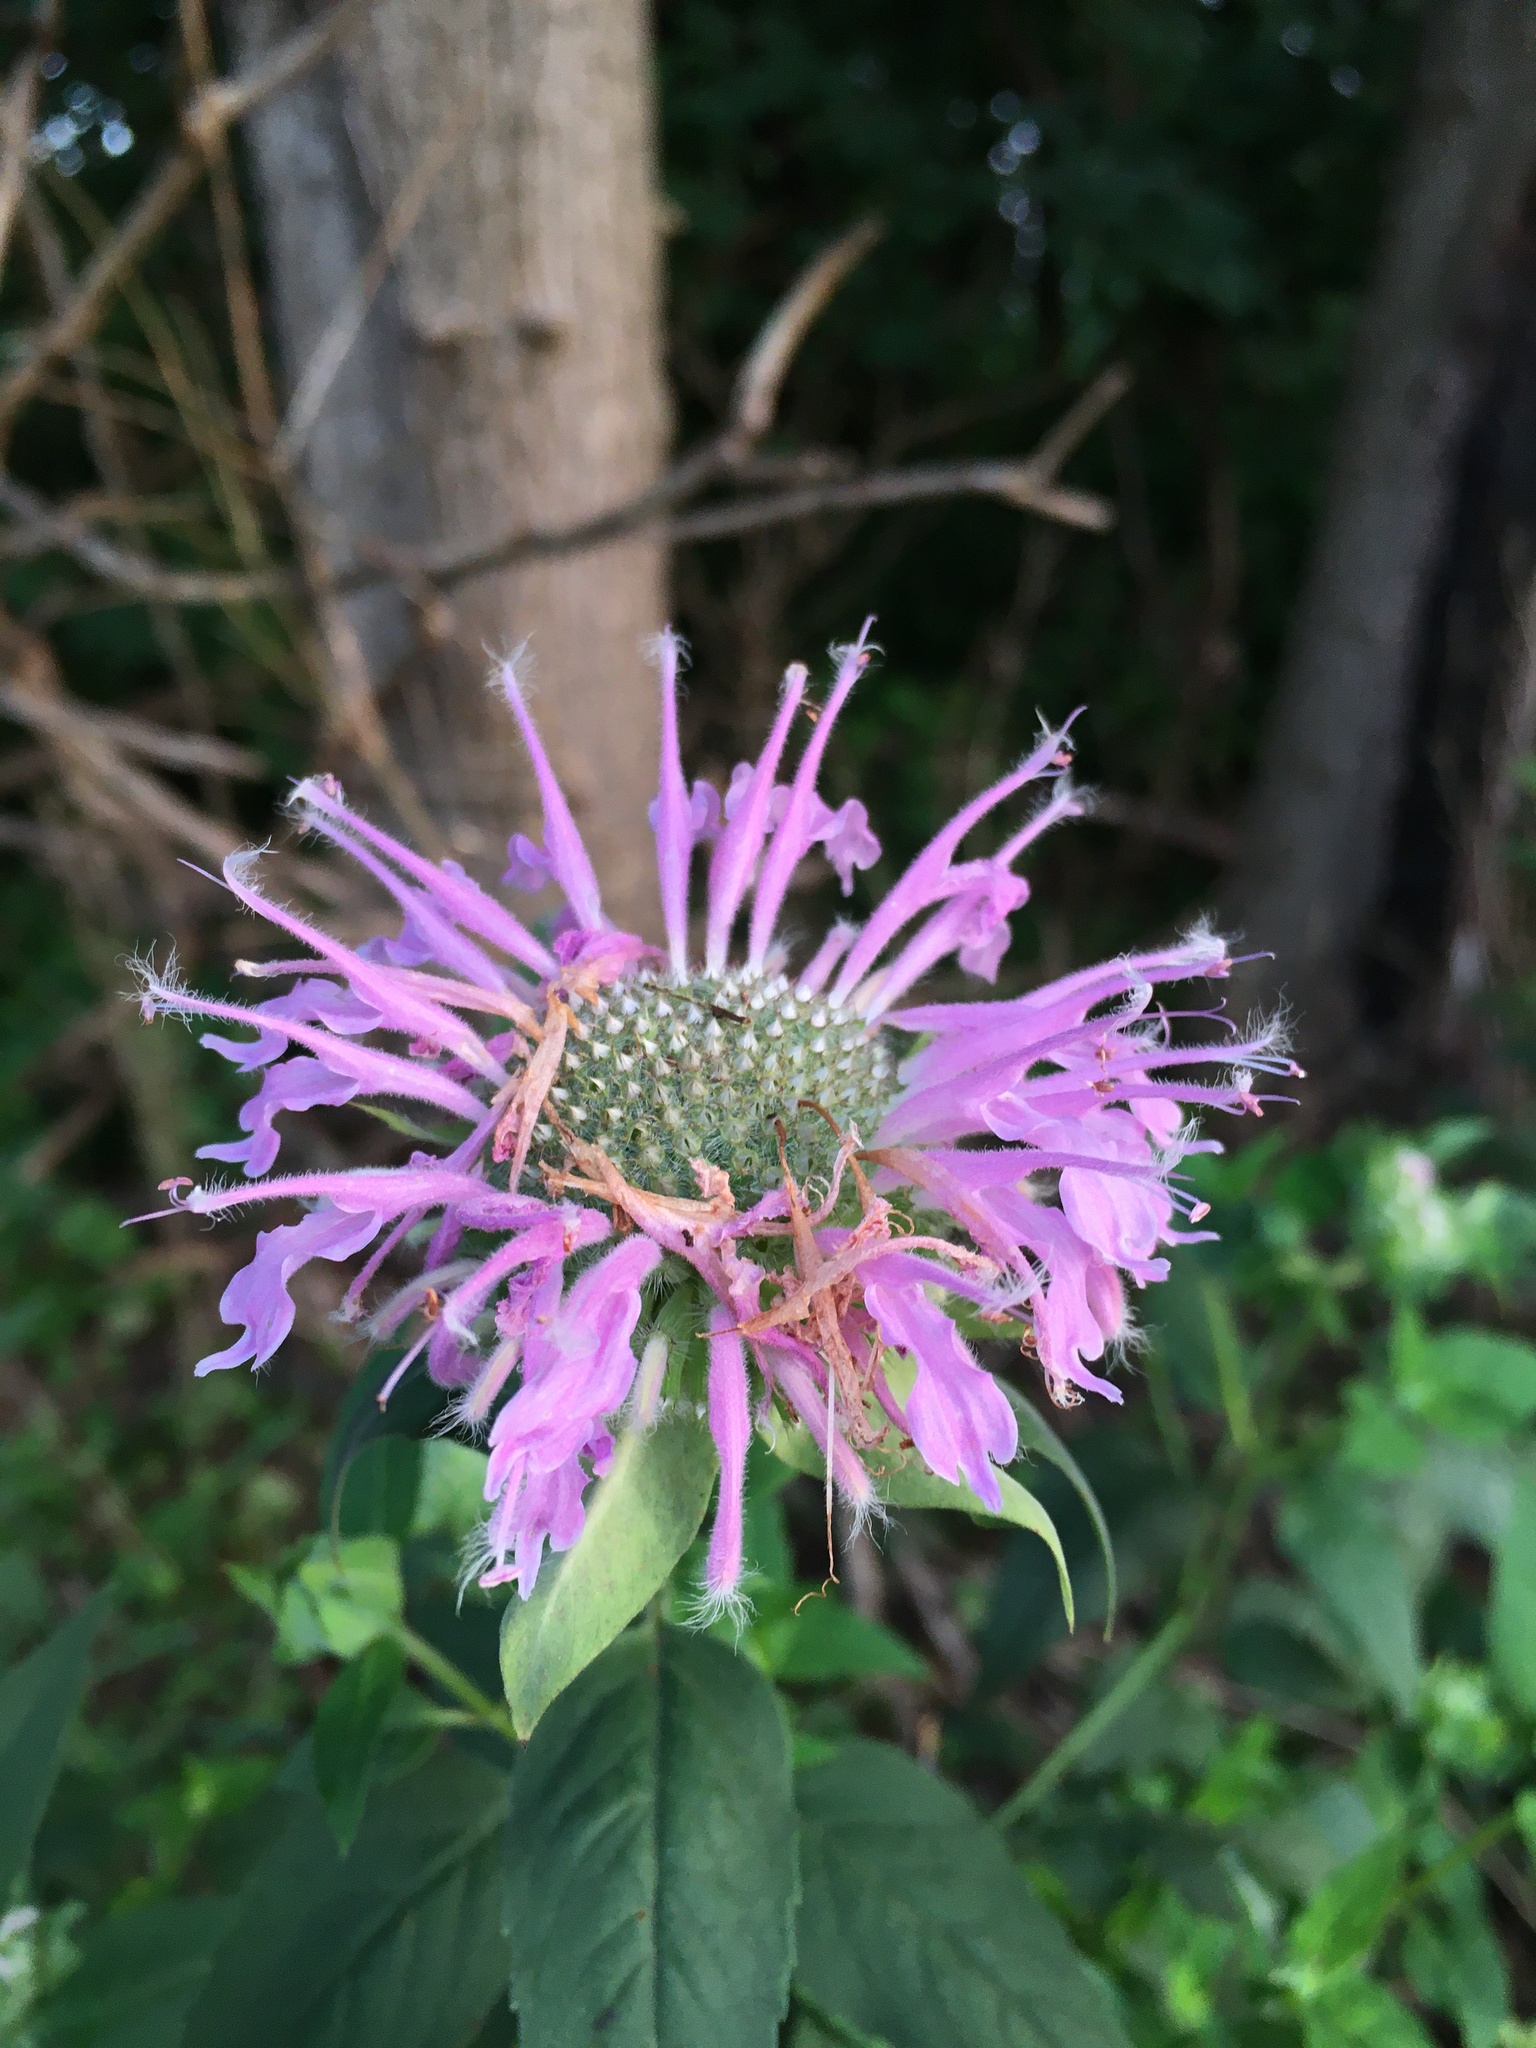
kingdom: Plantae
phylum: Tracheophyta
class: Magnoliopsida
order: Lamiales
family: Lamiaceae
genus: Monarda
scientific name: Monarda fistulosa
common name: Purple beebalm
